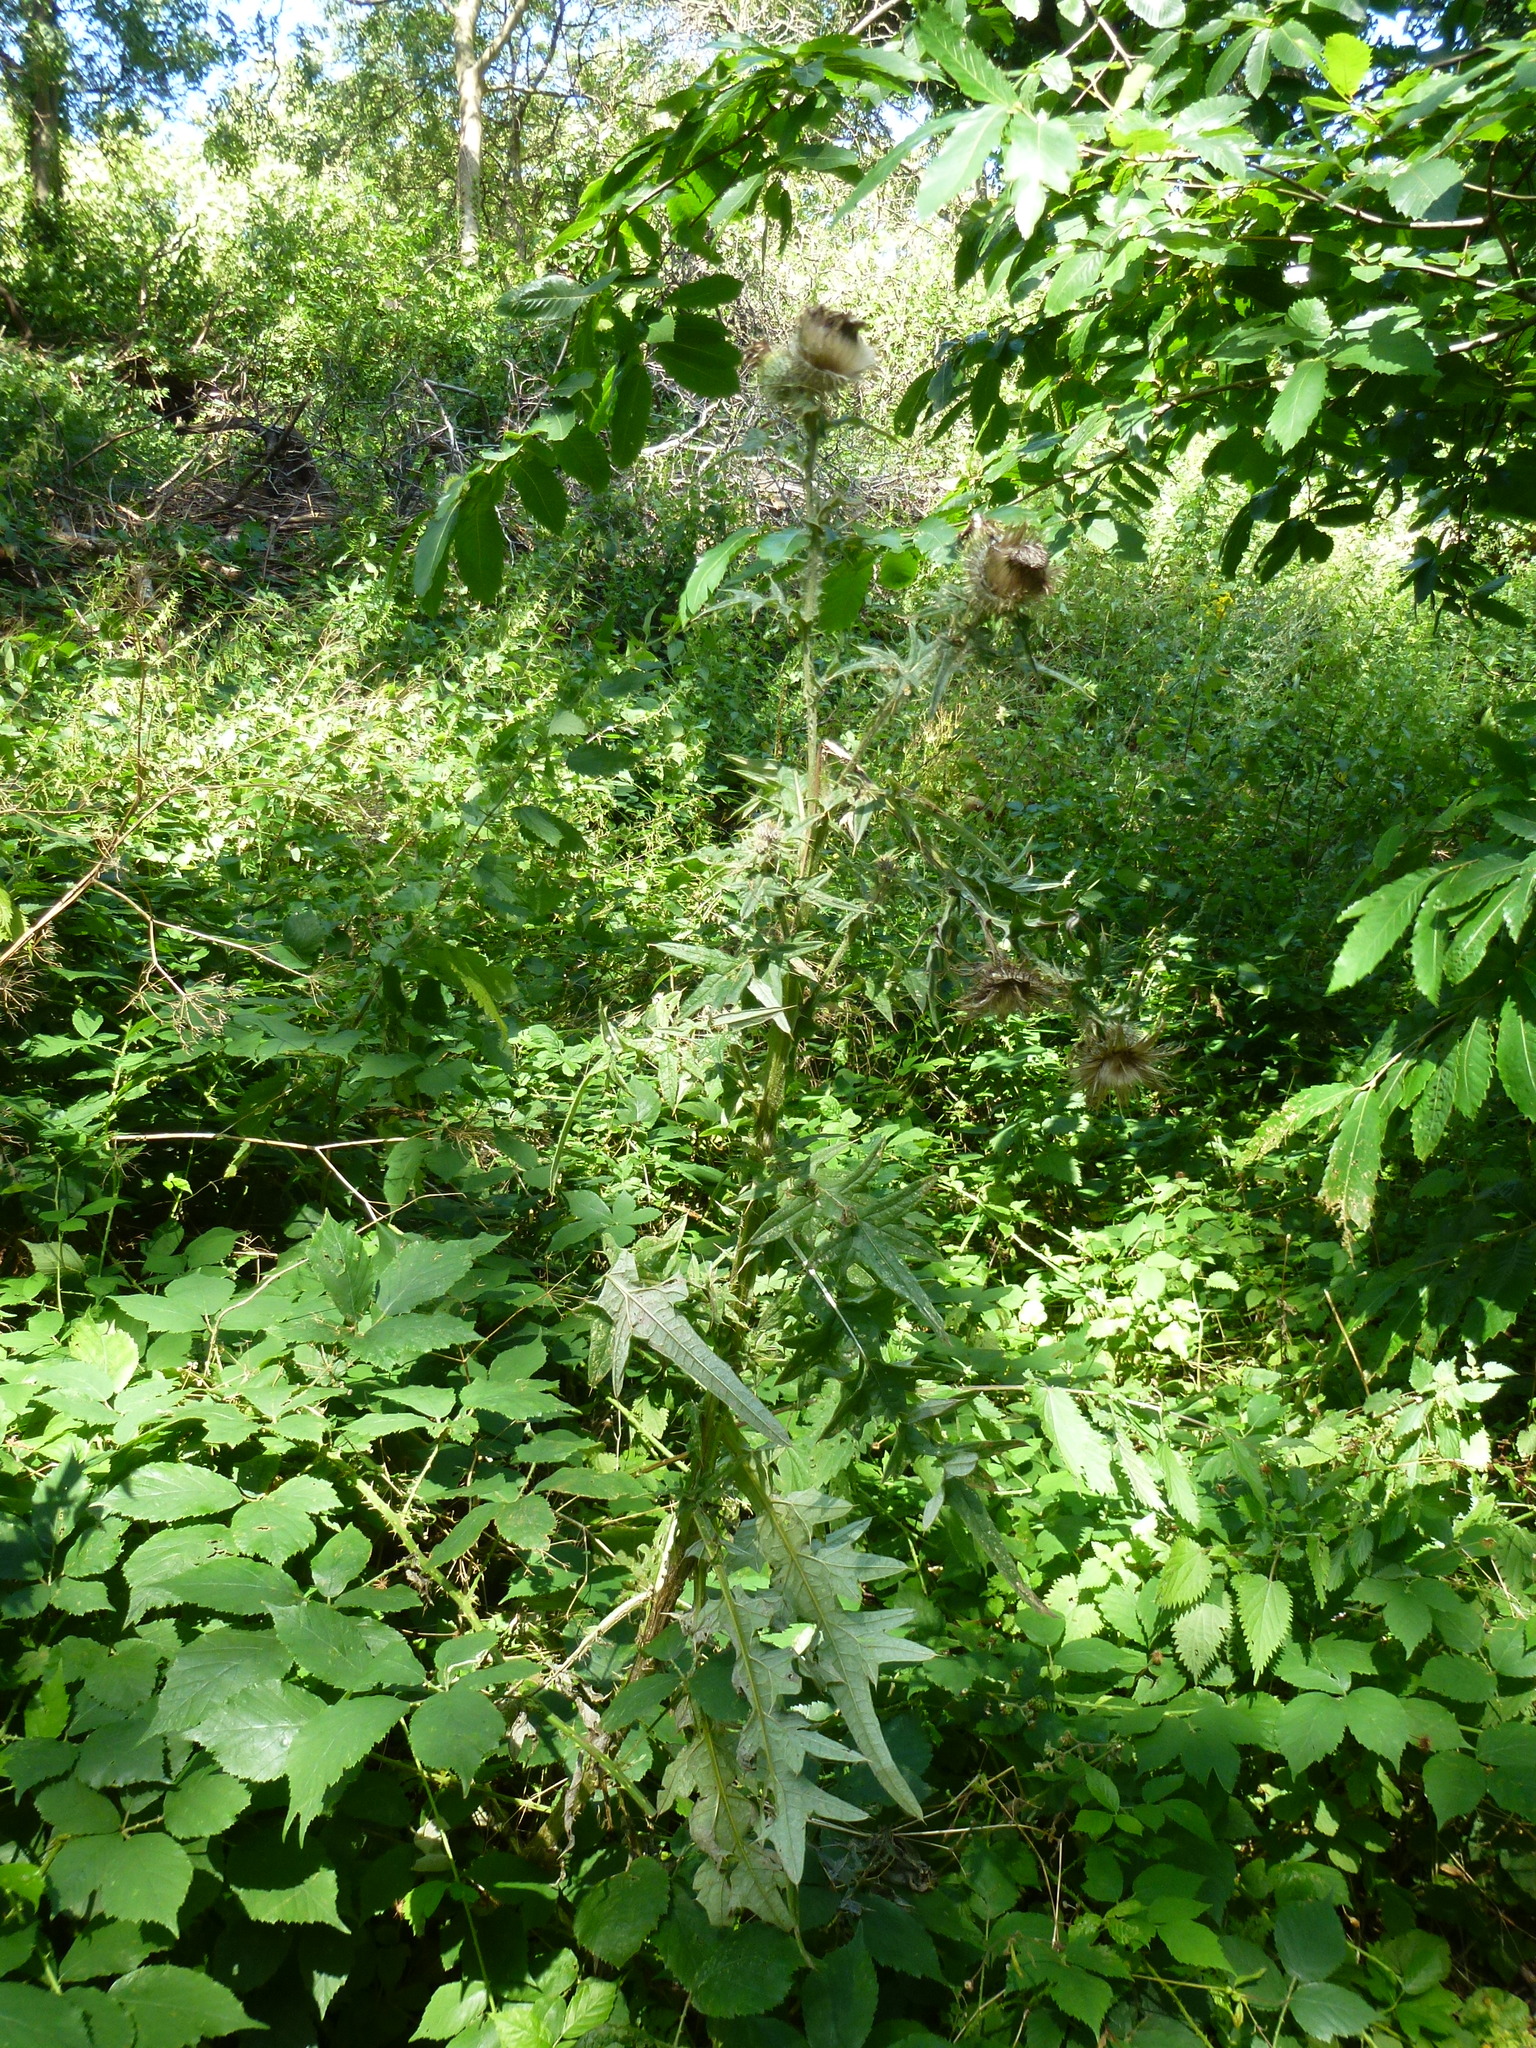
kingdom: Plantae
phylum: Tracheophyta
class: Magnoliopsida
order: Asterales
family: Asteraceae
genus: Cirsium
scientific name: Cirsium vulgare
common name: Bull thistle
